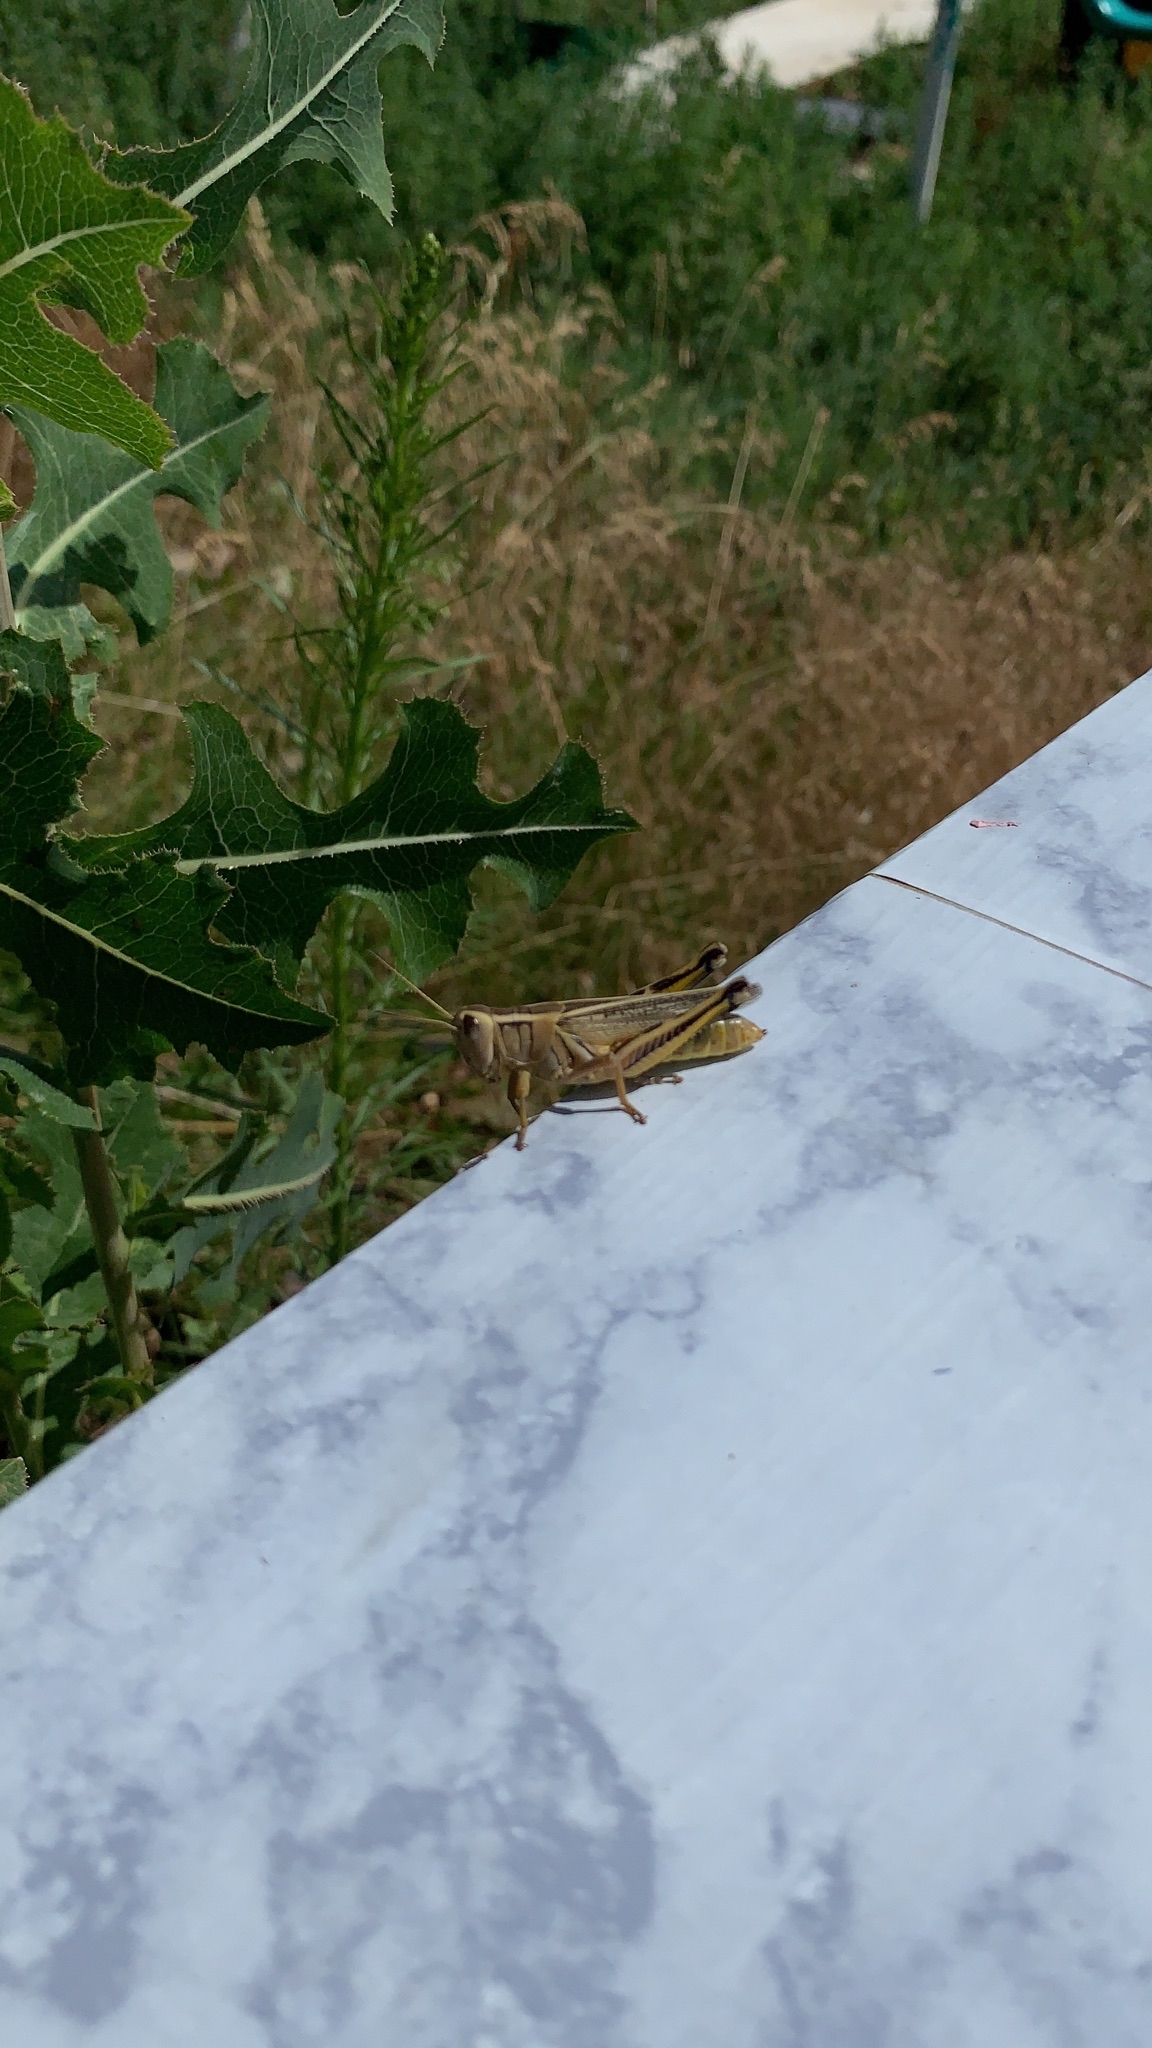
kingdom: Animalia
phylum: Arthropoda
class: Insecta
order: Orthoptera
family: Acrididae
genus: Melanoplus
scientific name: Melanoplus bivittatus
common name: Two-striped grasshopper
